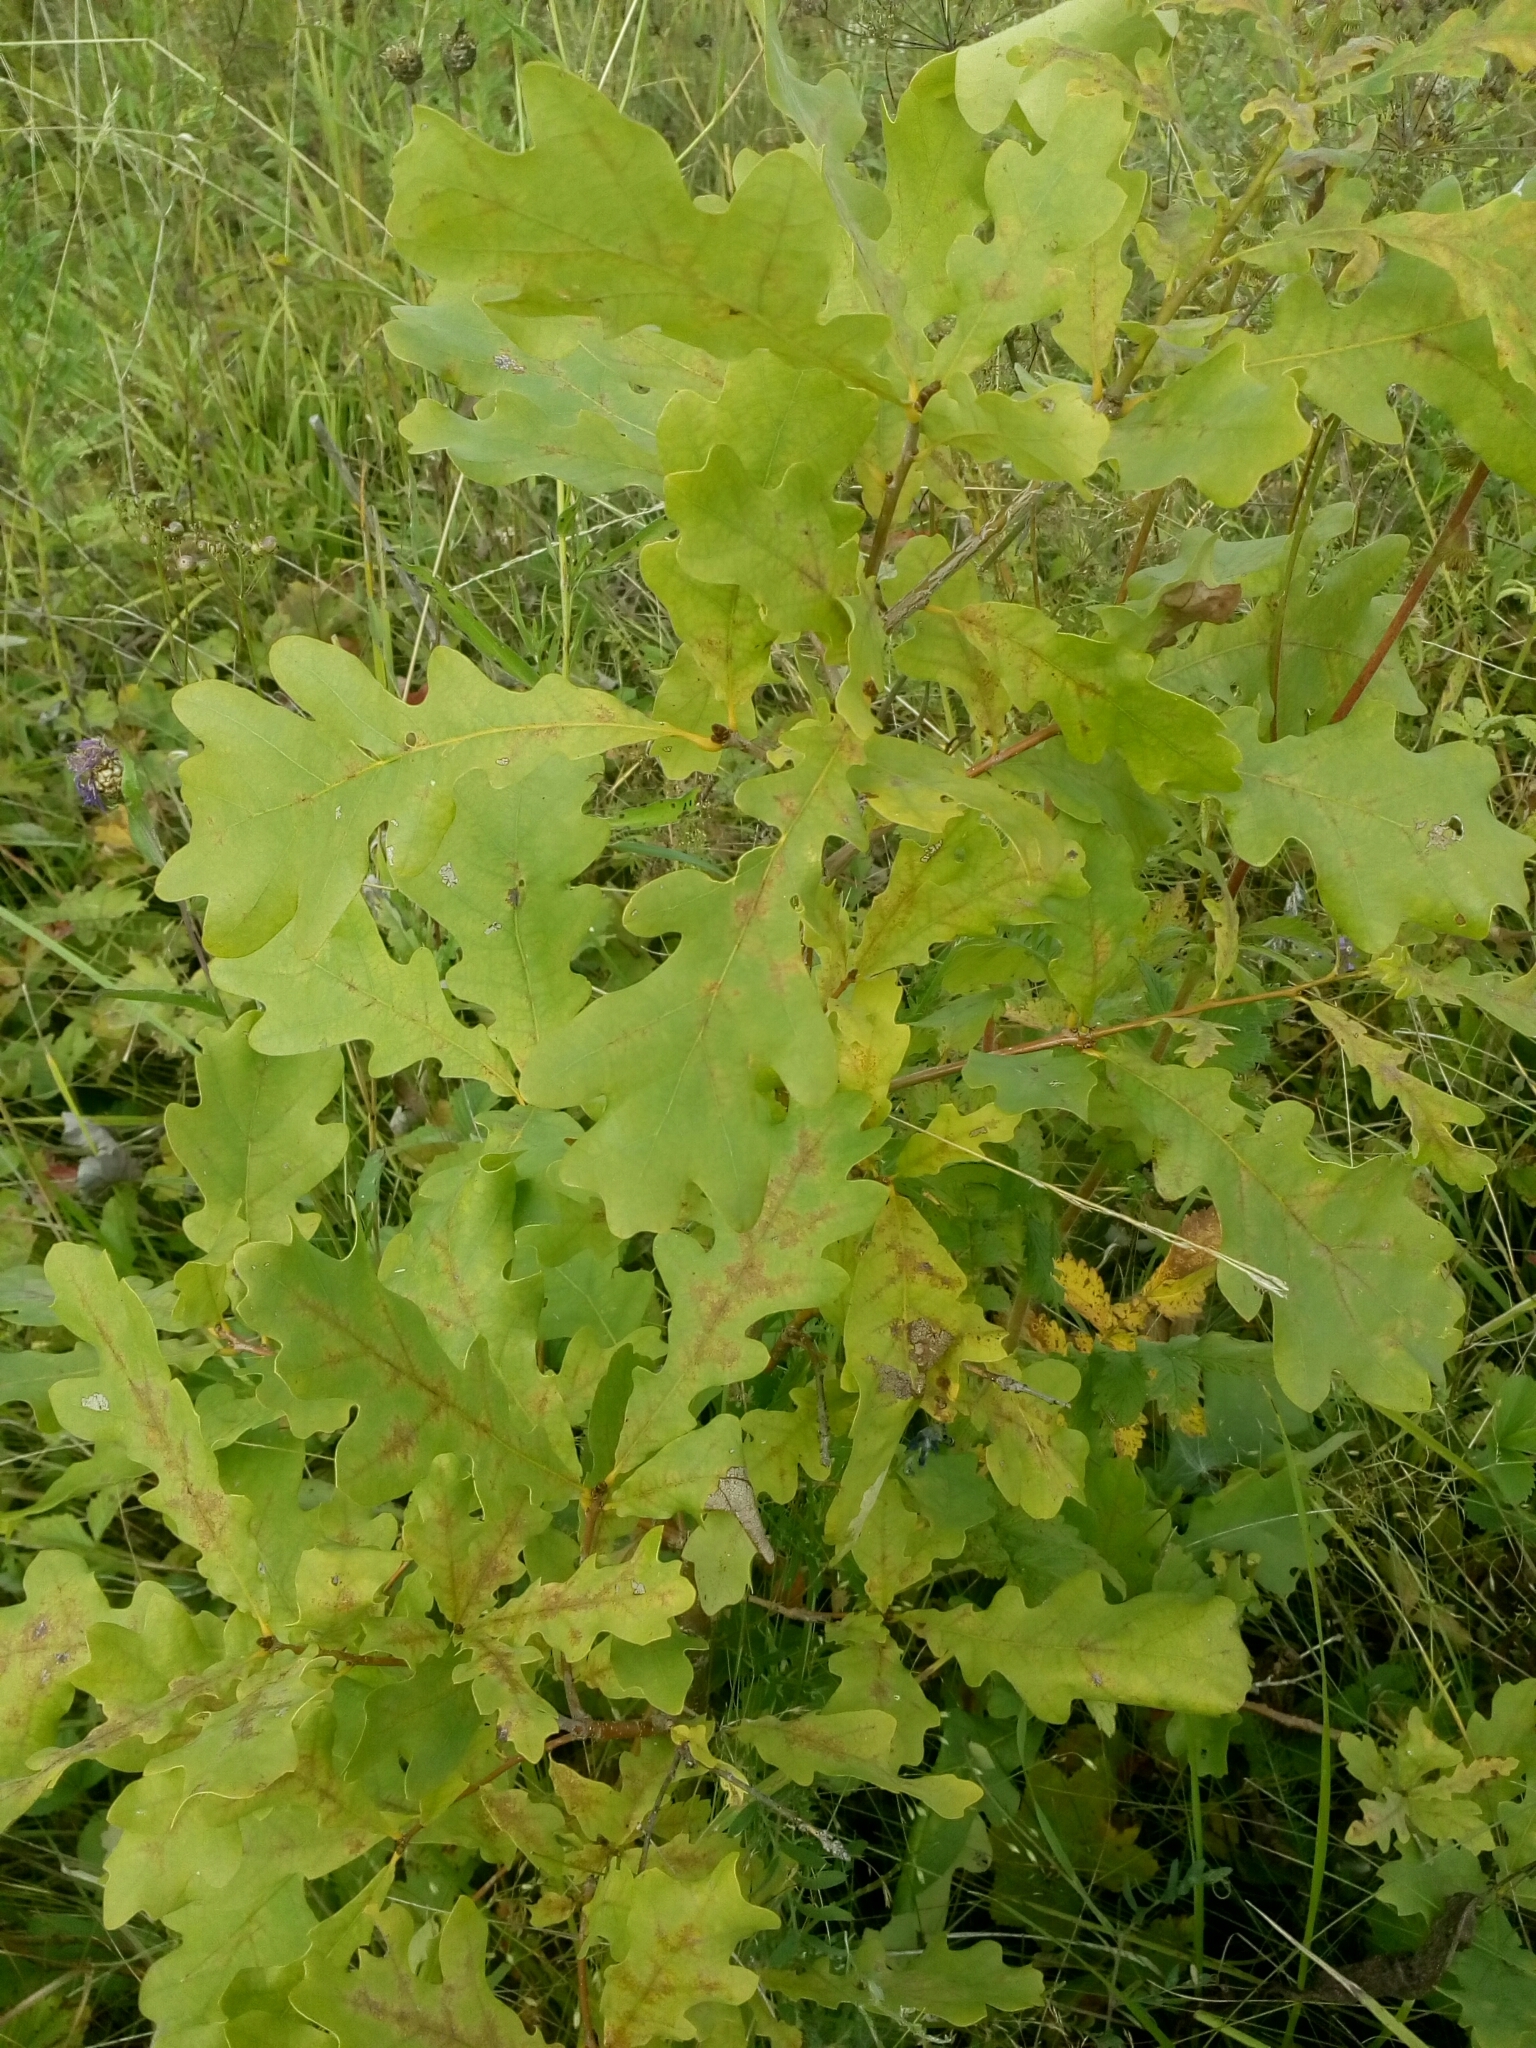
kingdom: Plantae
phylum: Tracheophyta
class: Magnoliopsida
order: Fagales
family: Fagaceae
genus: Quercus
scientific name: Quercus robur
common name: Pedunculate oak
